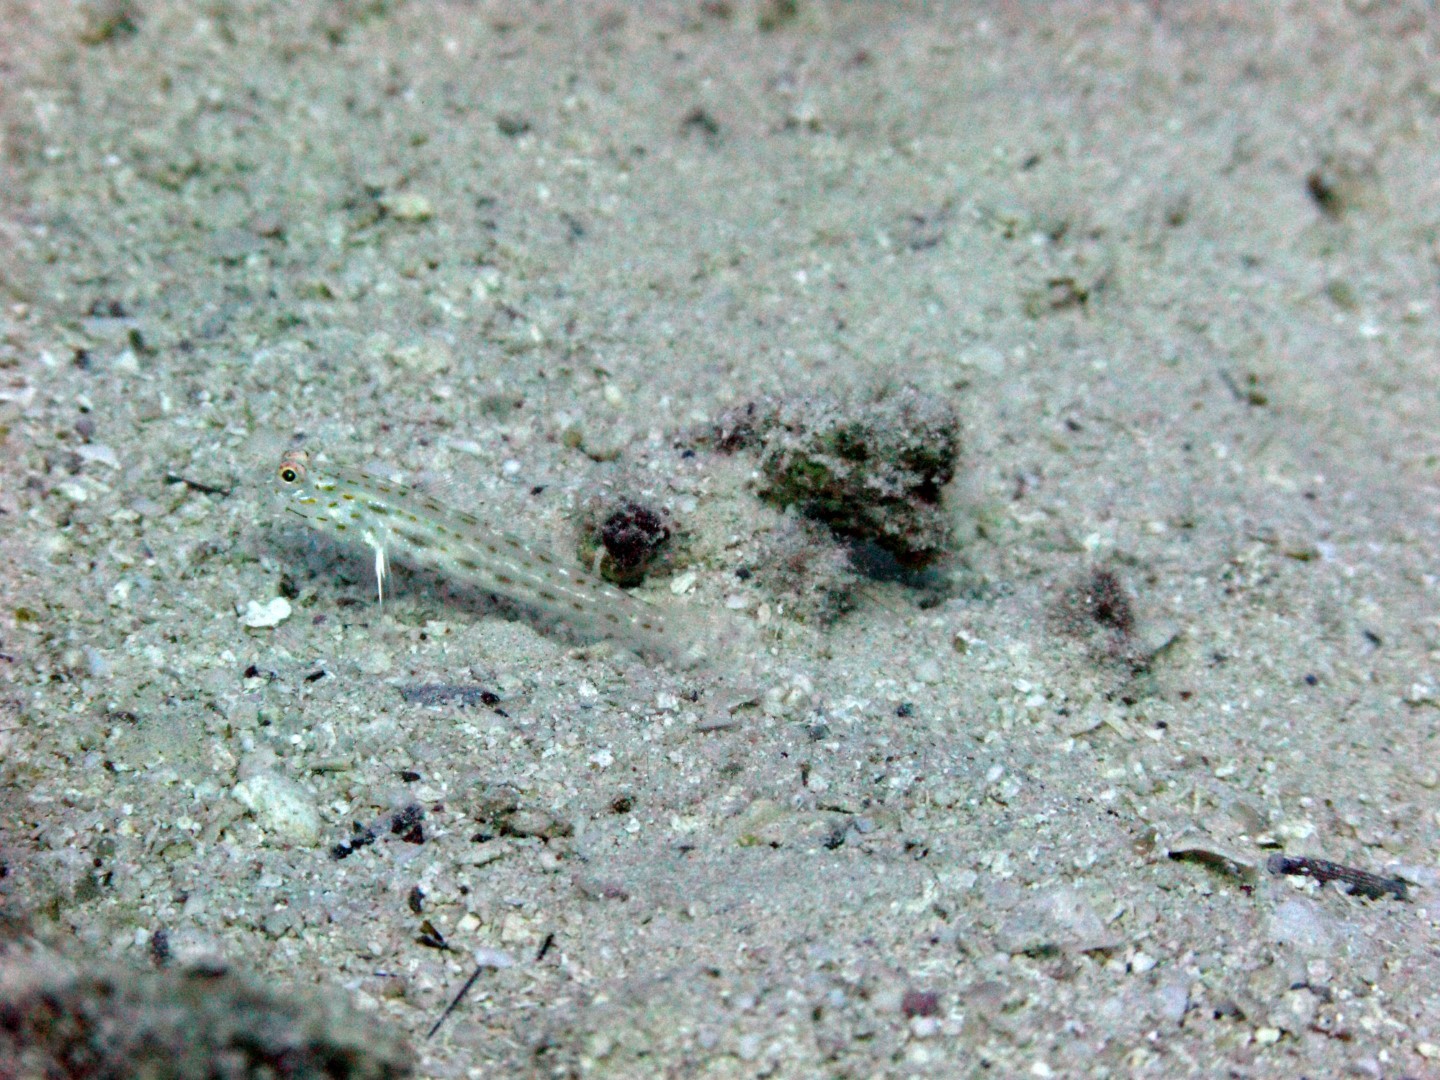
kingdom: Animalia
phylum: Chordata
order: Perciformes
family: Gobiidae
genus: Ctenogobiops
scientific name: Ctenogobiops crocineus
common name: Silverspot shrimpgoby
